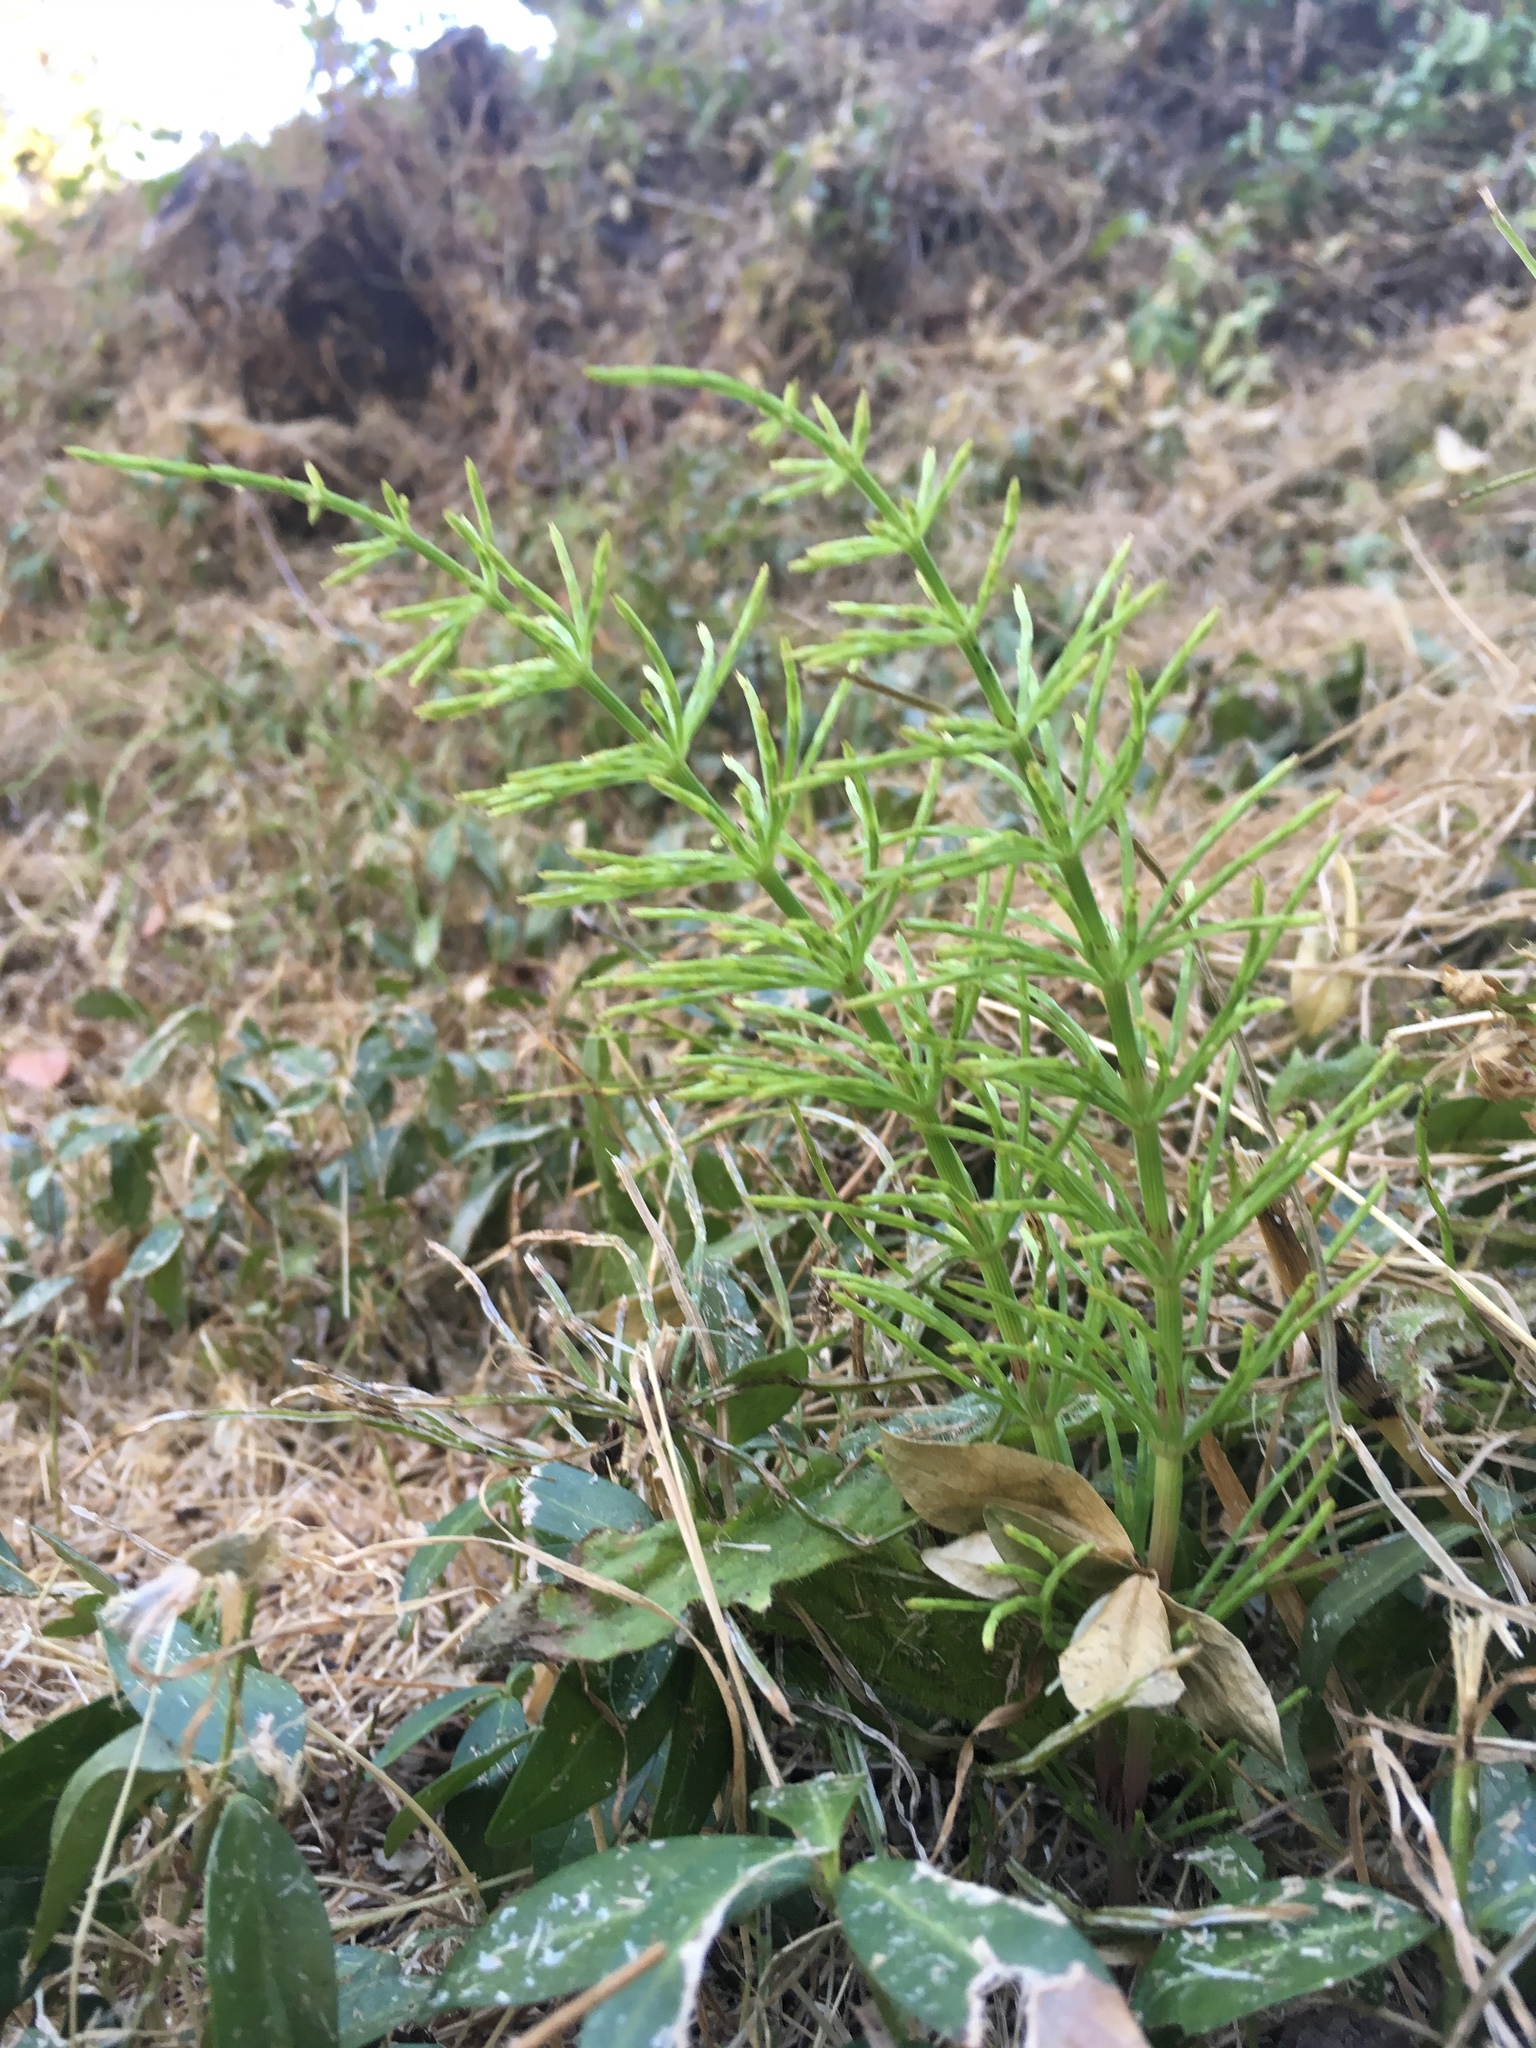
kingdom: Plantae
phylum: Tracheophyta
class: Polypodiopsida
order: Equisetales
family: Equisetaceae
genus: Equisetum
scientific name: Equisetum arvense
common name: Field horsetail
